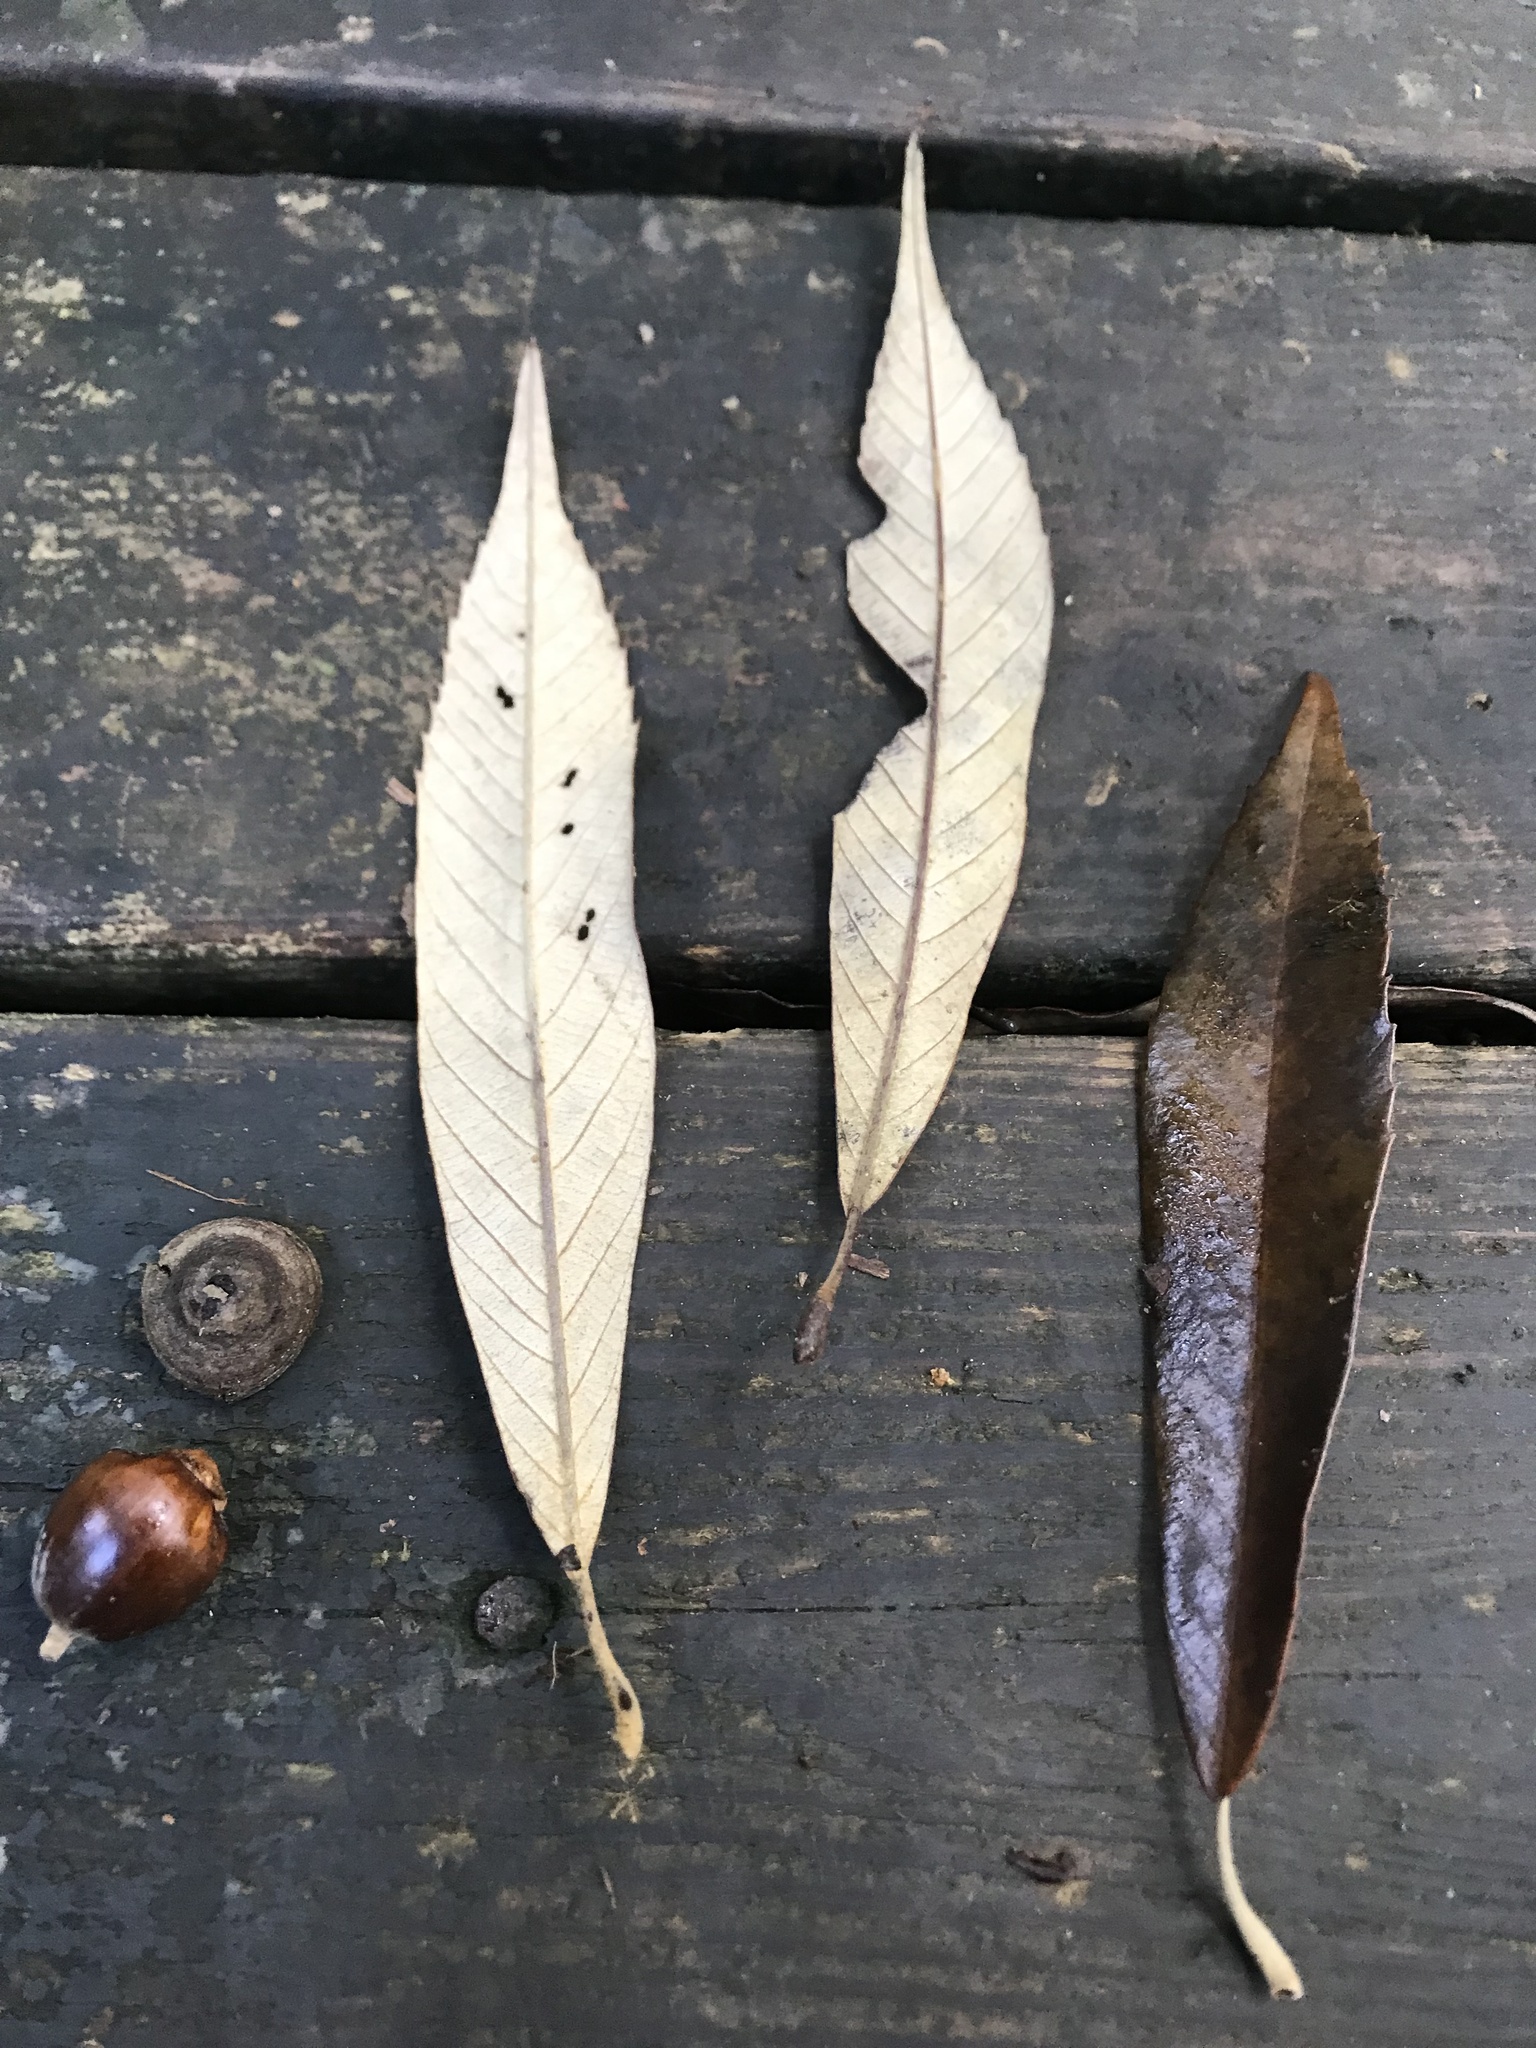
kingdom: Plantae
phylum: Tracheophyta
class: Magnoliopsida
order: Fagales
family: Fagaceae
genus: Quercus
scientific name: Quercus gilva
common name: Redbark oak
